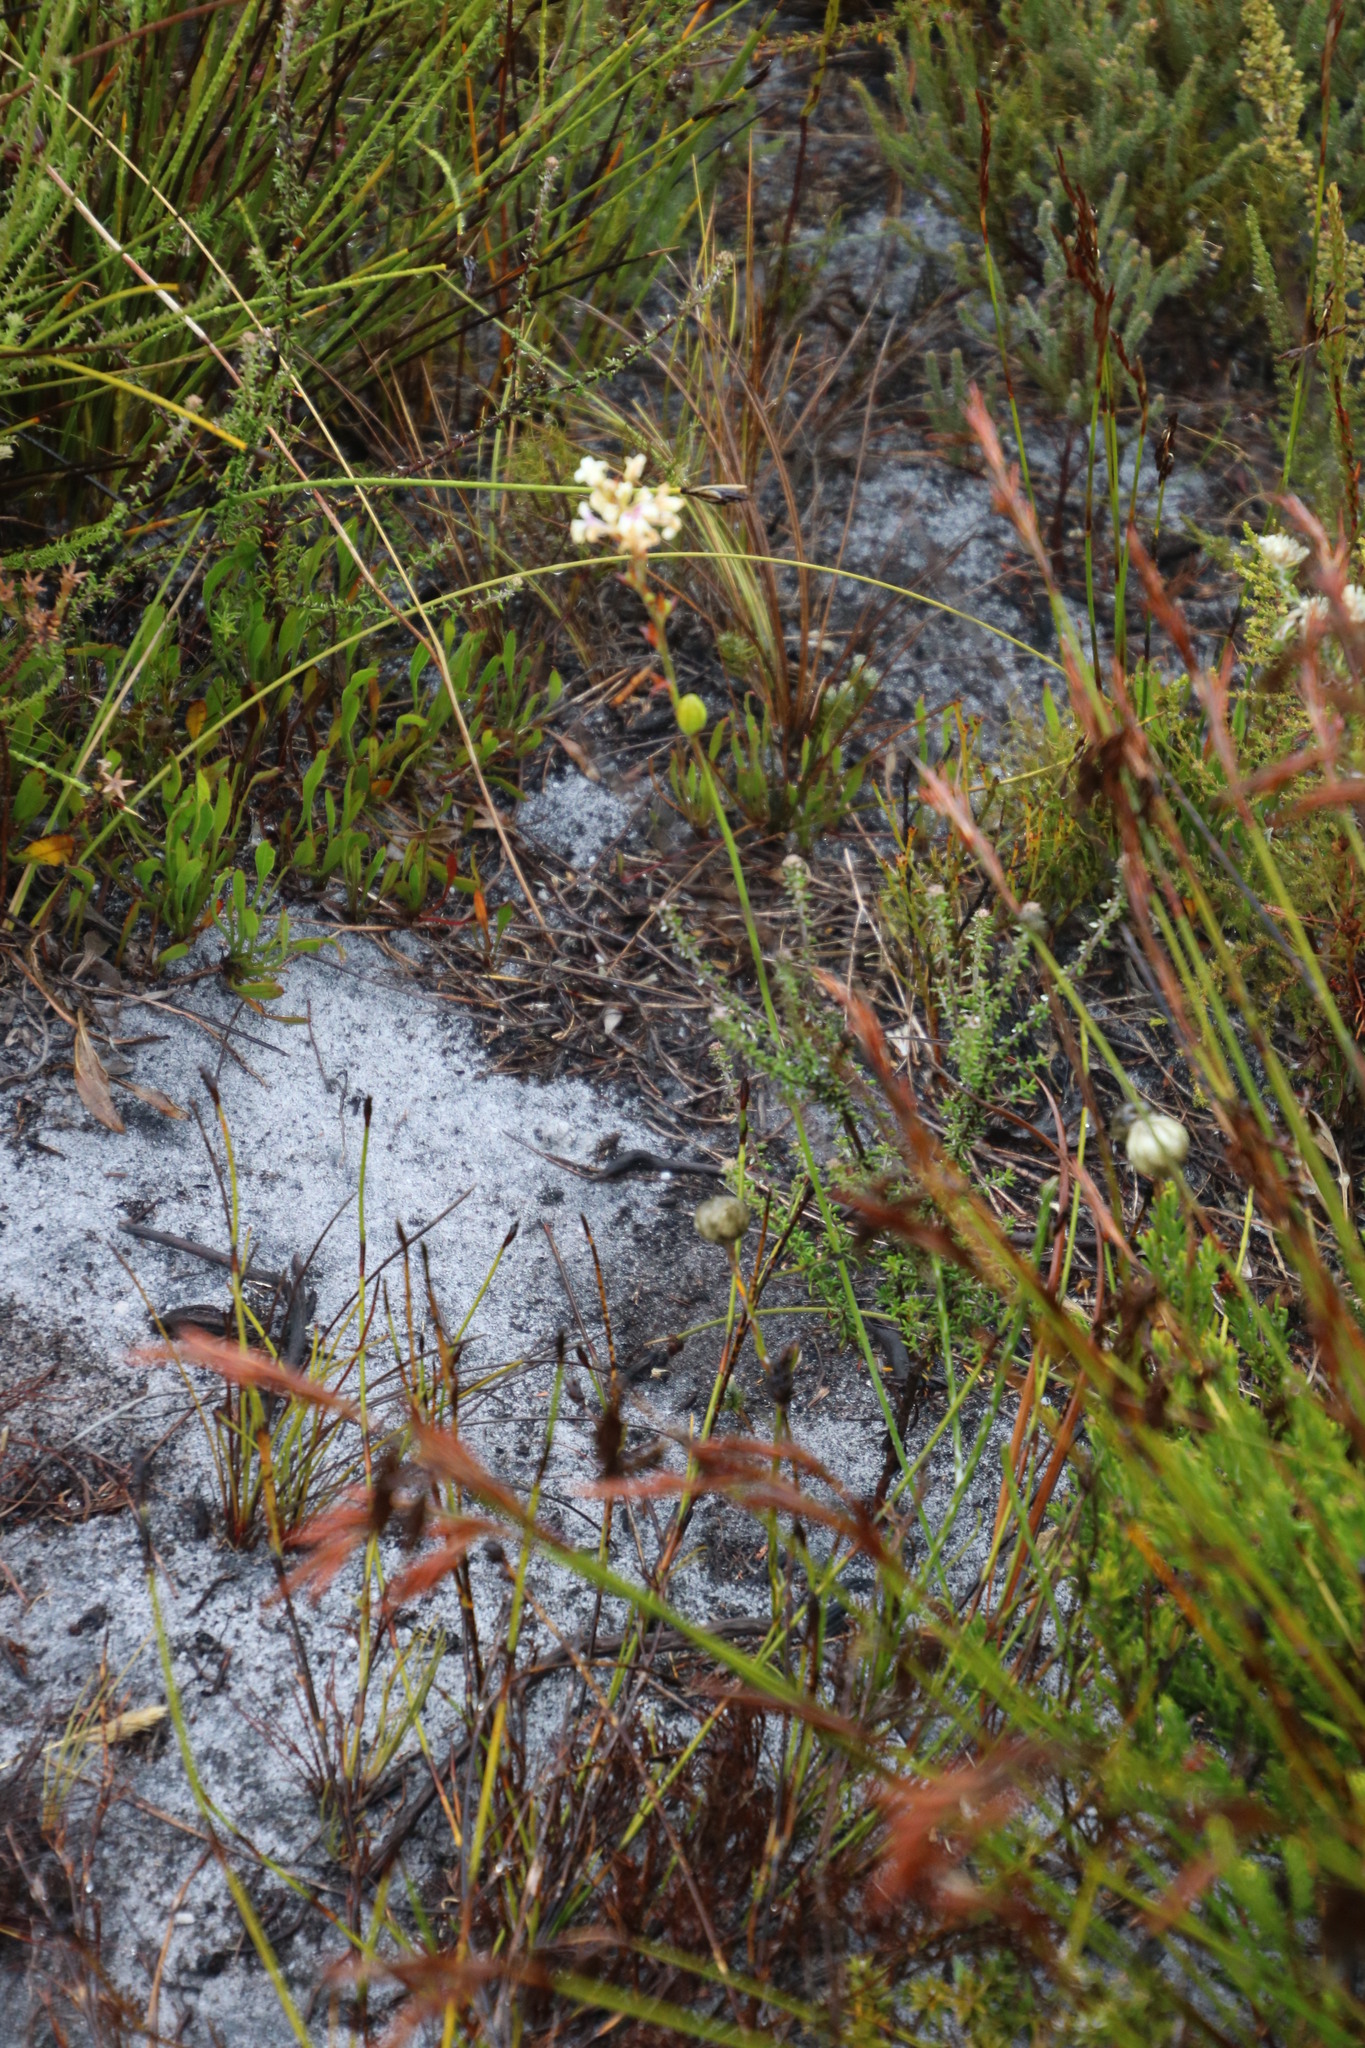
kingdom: Plantae
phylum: Tracheophyta
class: Liliopsida
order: Asparagales
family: Iridaceae
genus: Tritoniopsis
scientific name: Tritoniopsis unguicularis
